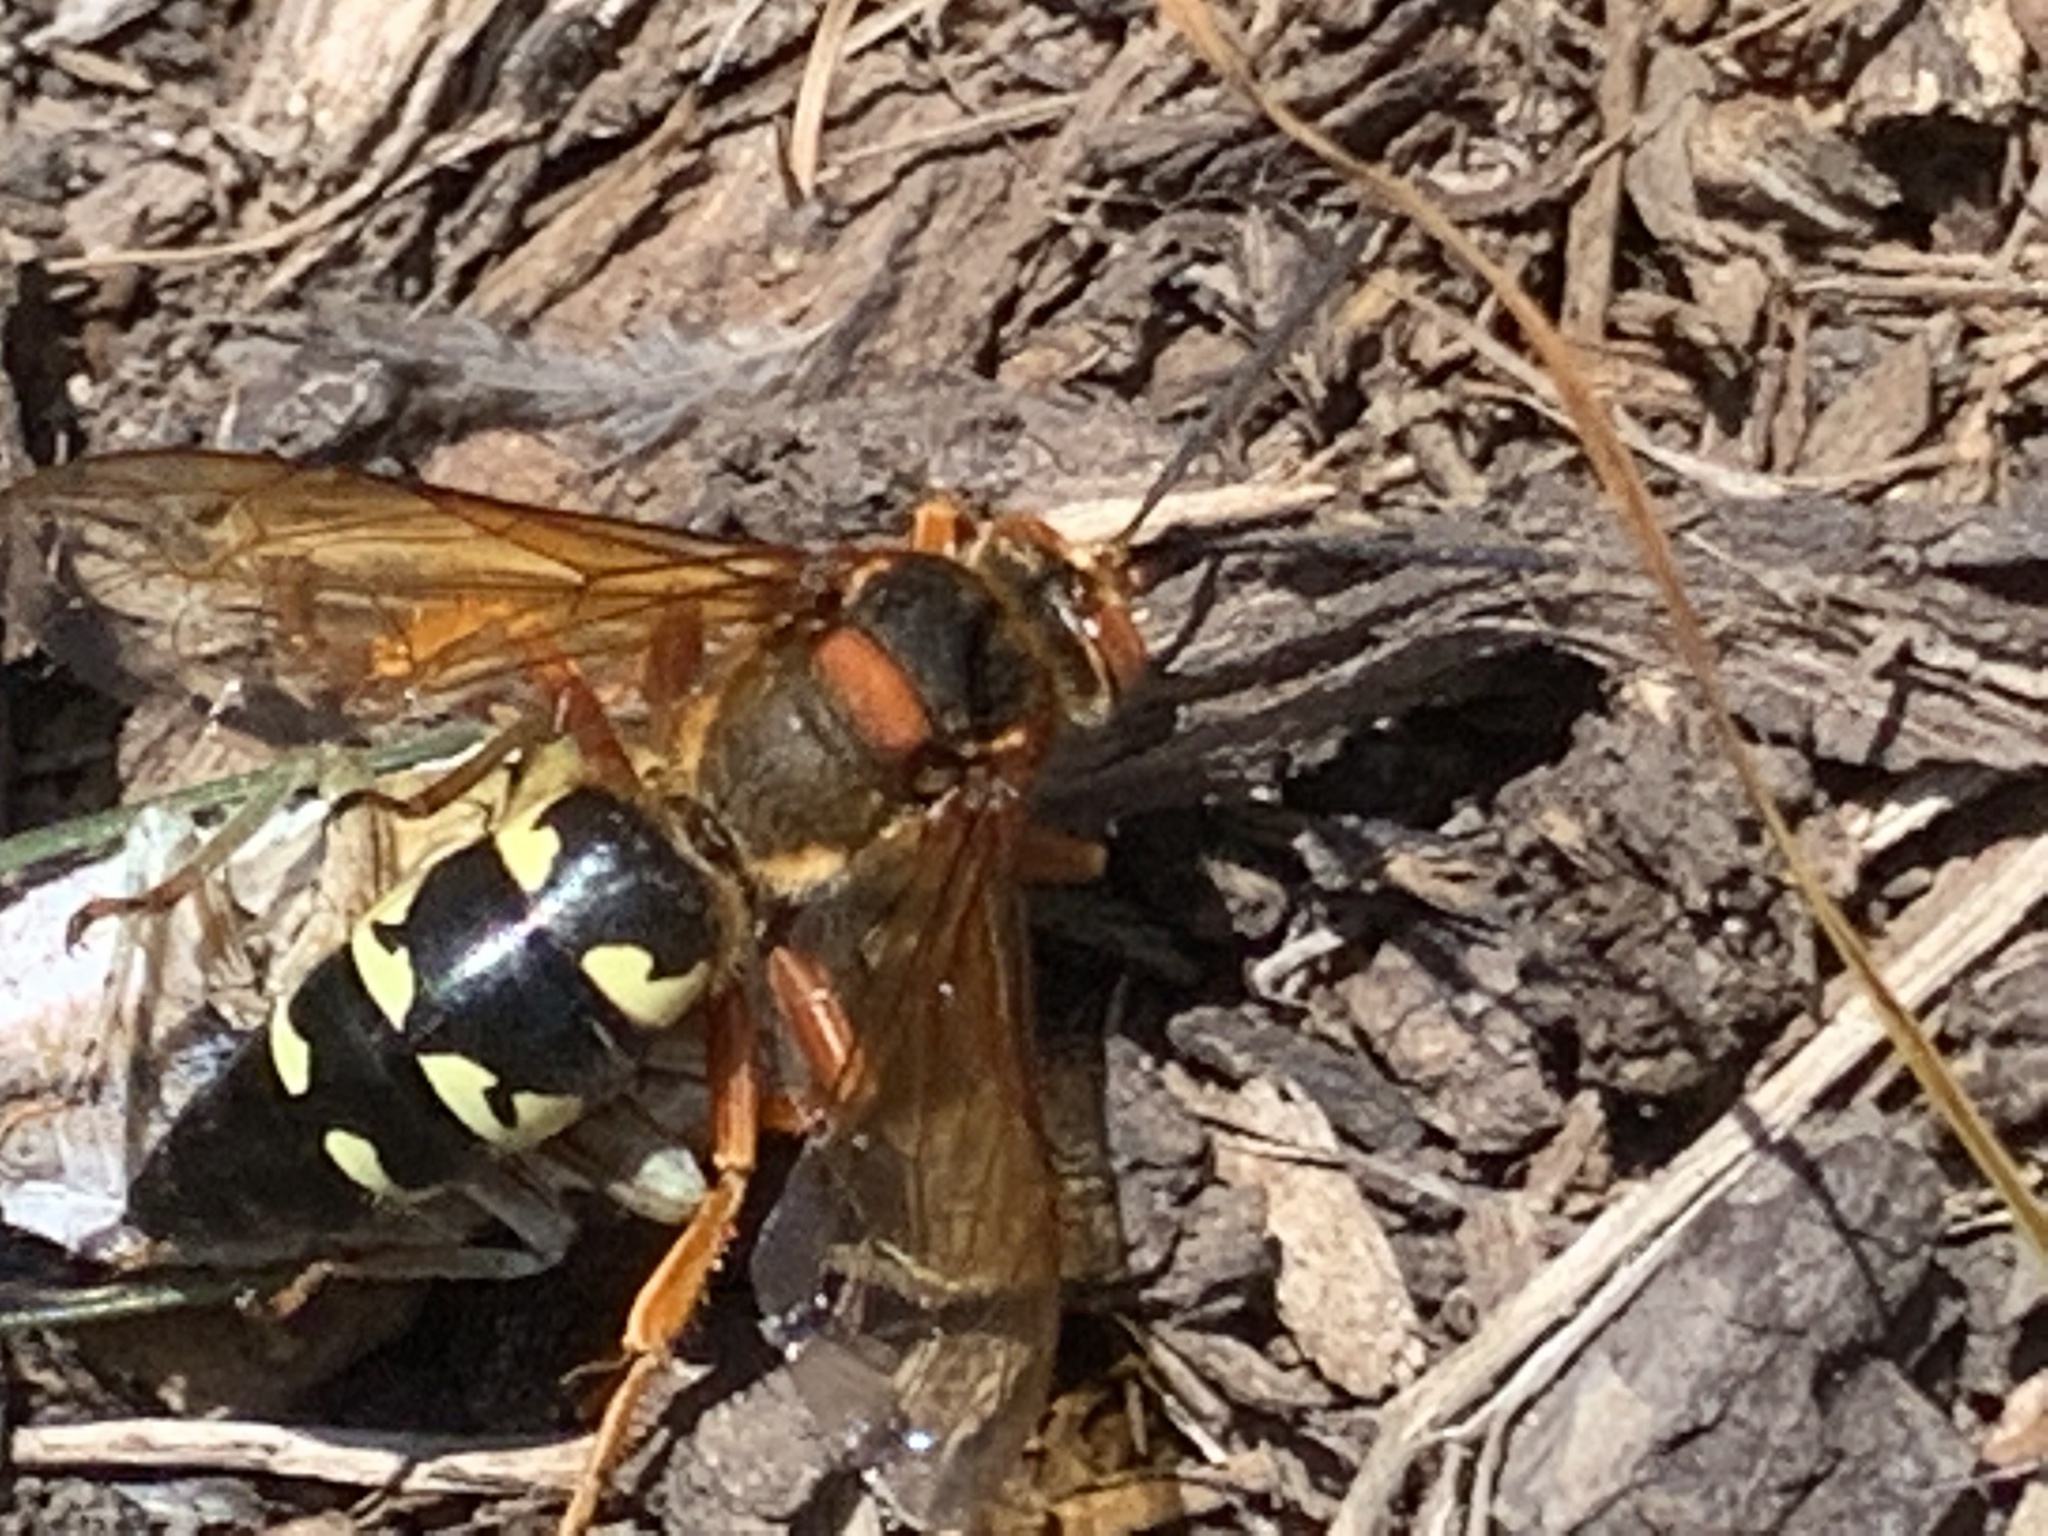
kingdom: Animalia
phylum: Arthropoda
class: Insecta
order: Hymenoptera
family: Crabronidae
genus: Sphecius
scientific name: Sphecius speciosus
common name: Cicada killer
